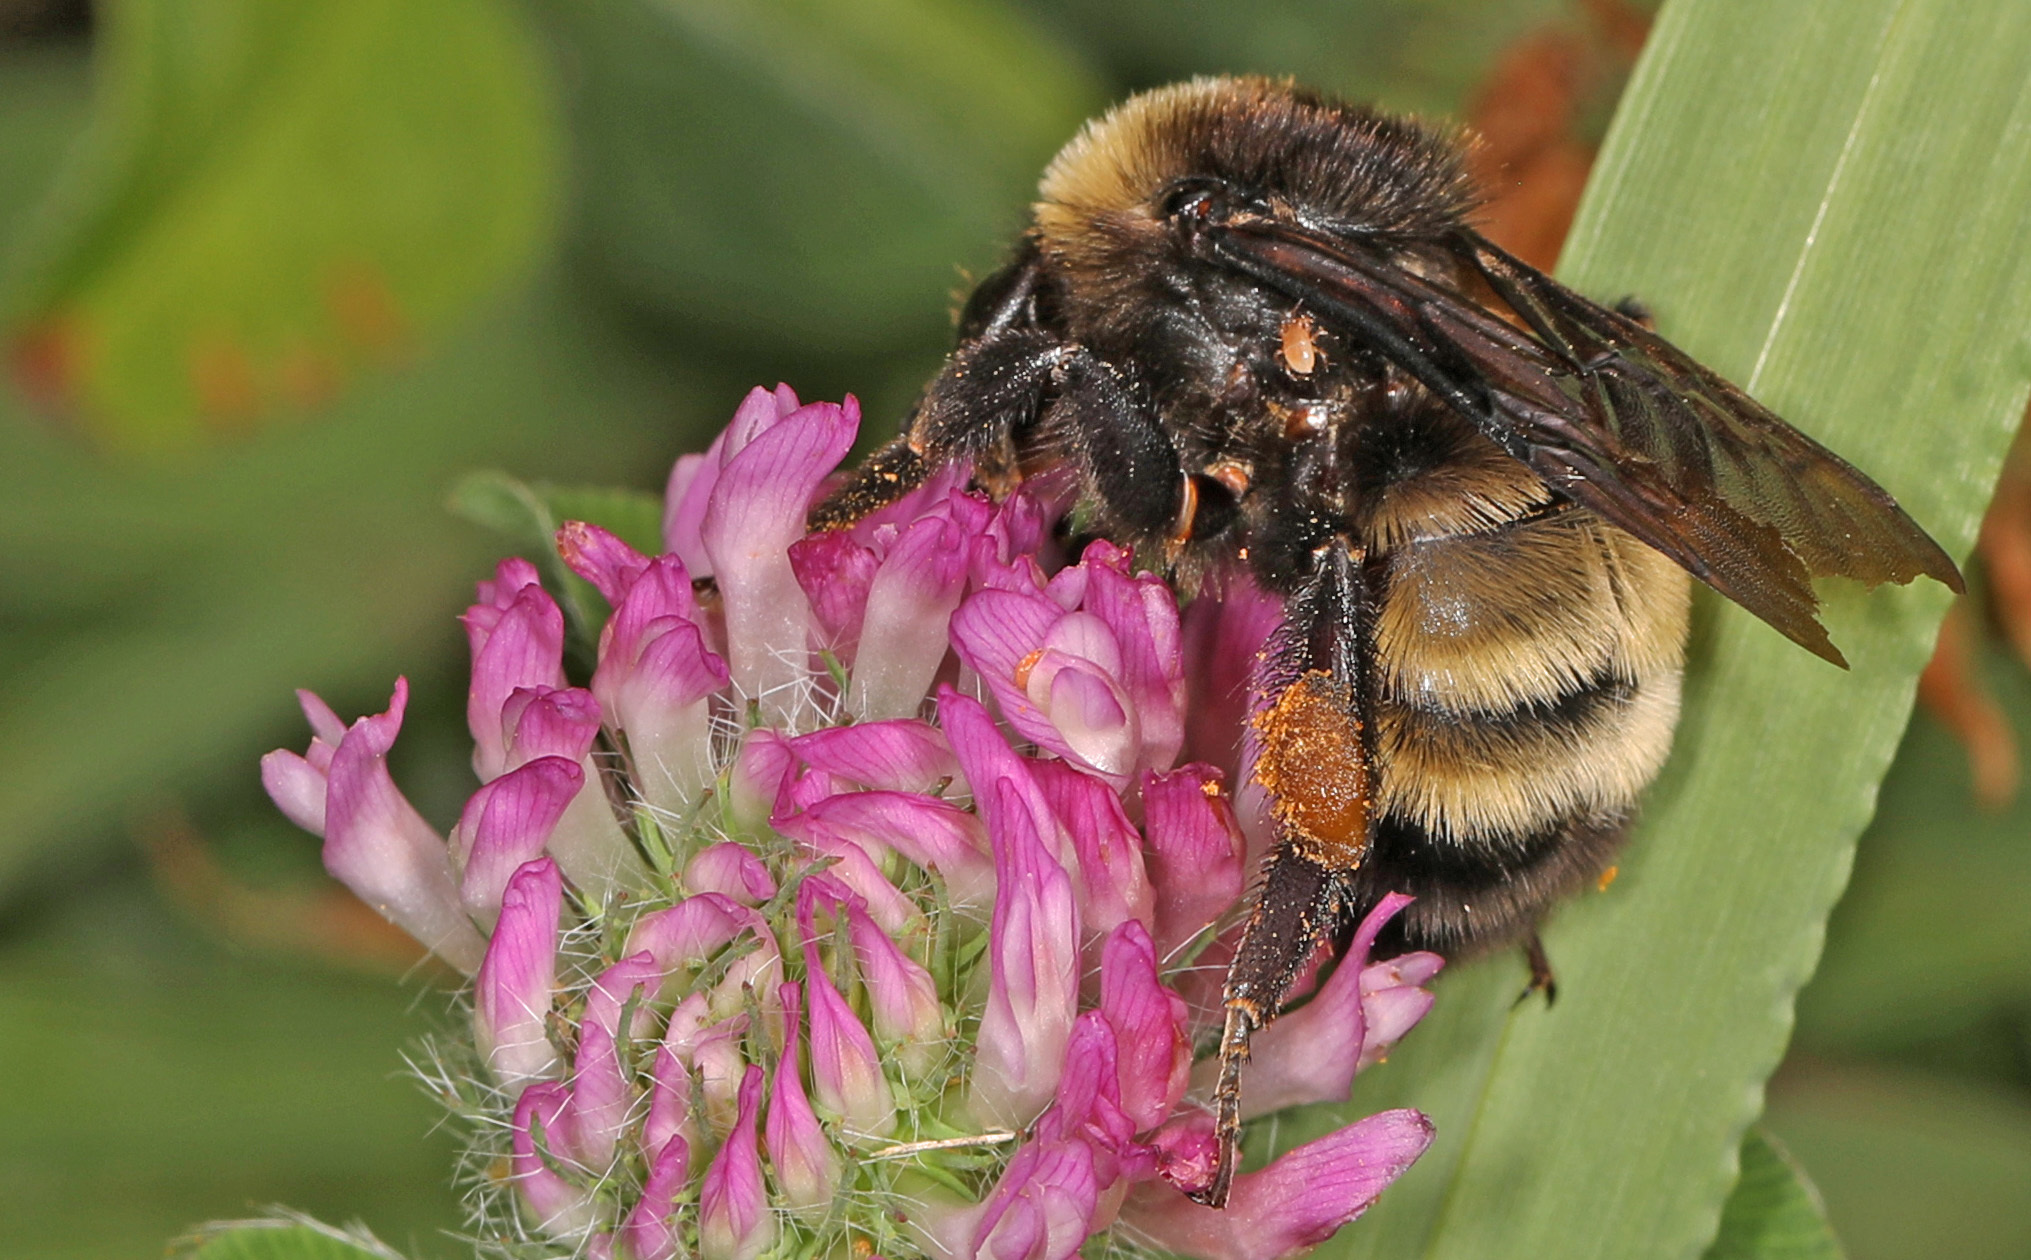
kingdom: Animalia
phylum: Arthropoda
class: Insecta
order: Hymenoptera
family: Apidae
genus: Bombus
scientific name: Bombus pensylvanicus
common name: Bumble bee
